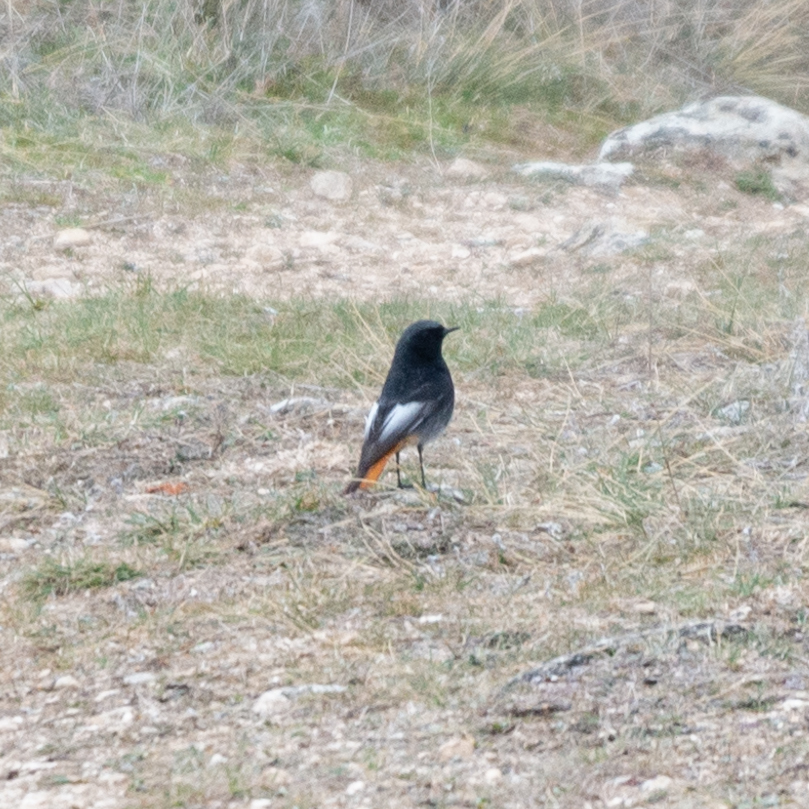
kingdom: Animalia
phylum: Chordata
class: Aves
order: Passeriformes
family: Muscicapidae
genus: Phoenicurus
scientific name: Phoenicurus ochruros
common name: Black redstart
